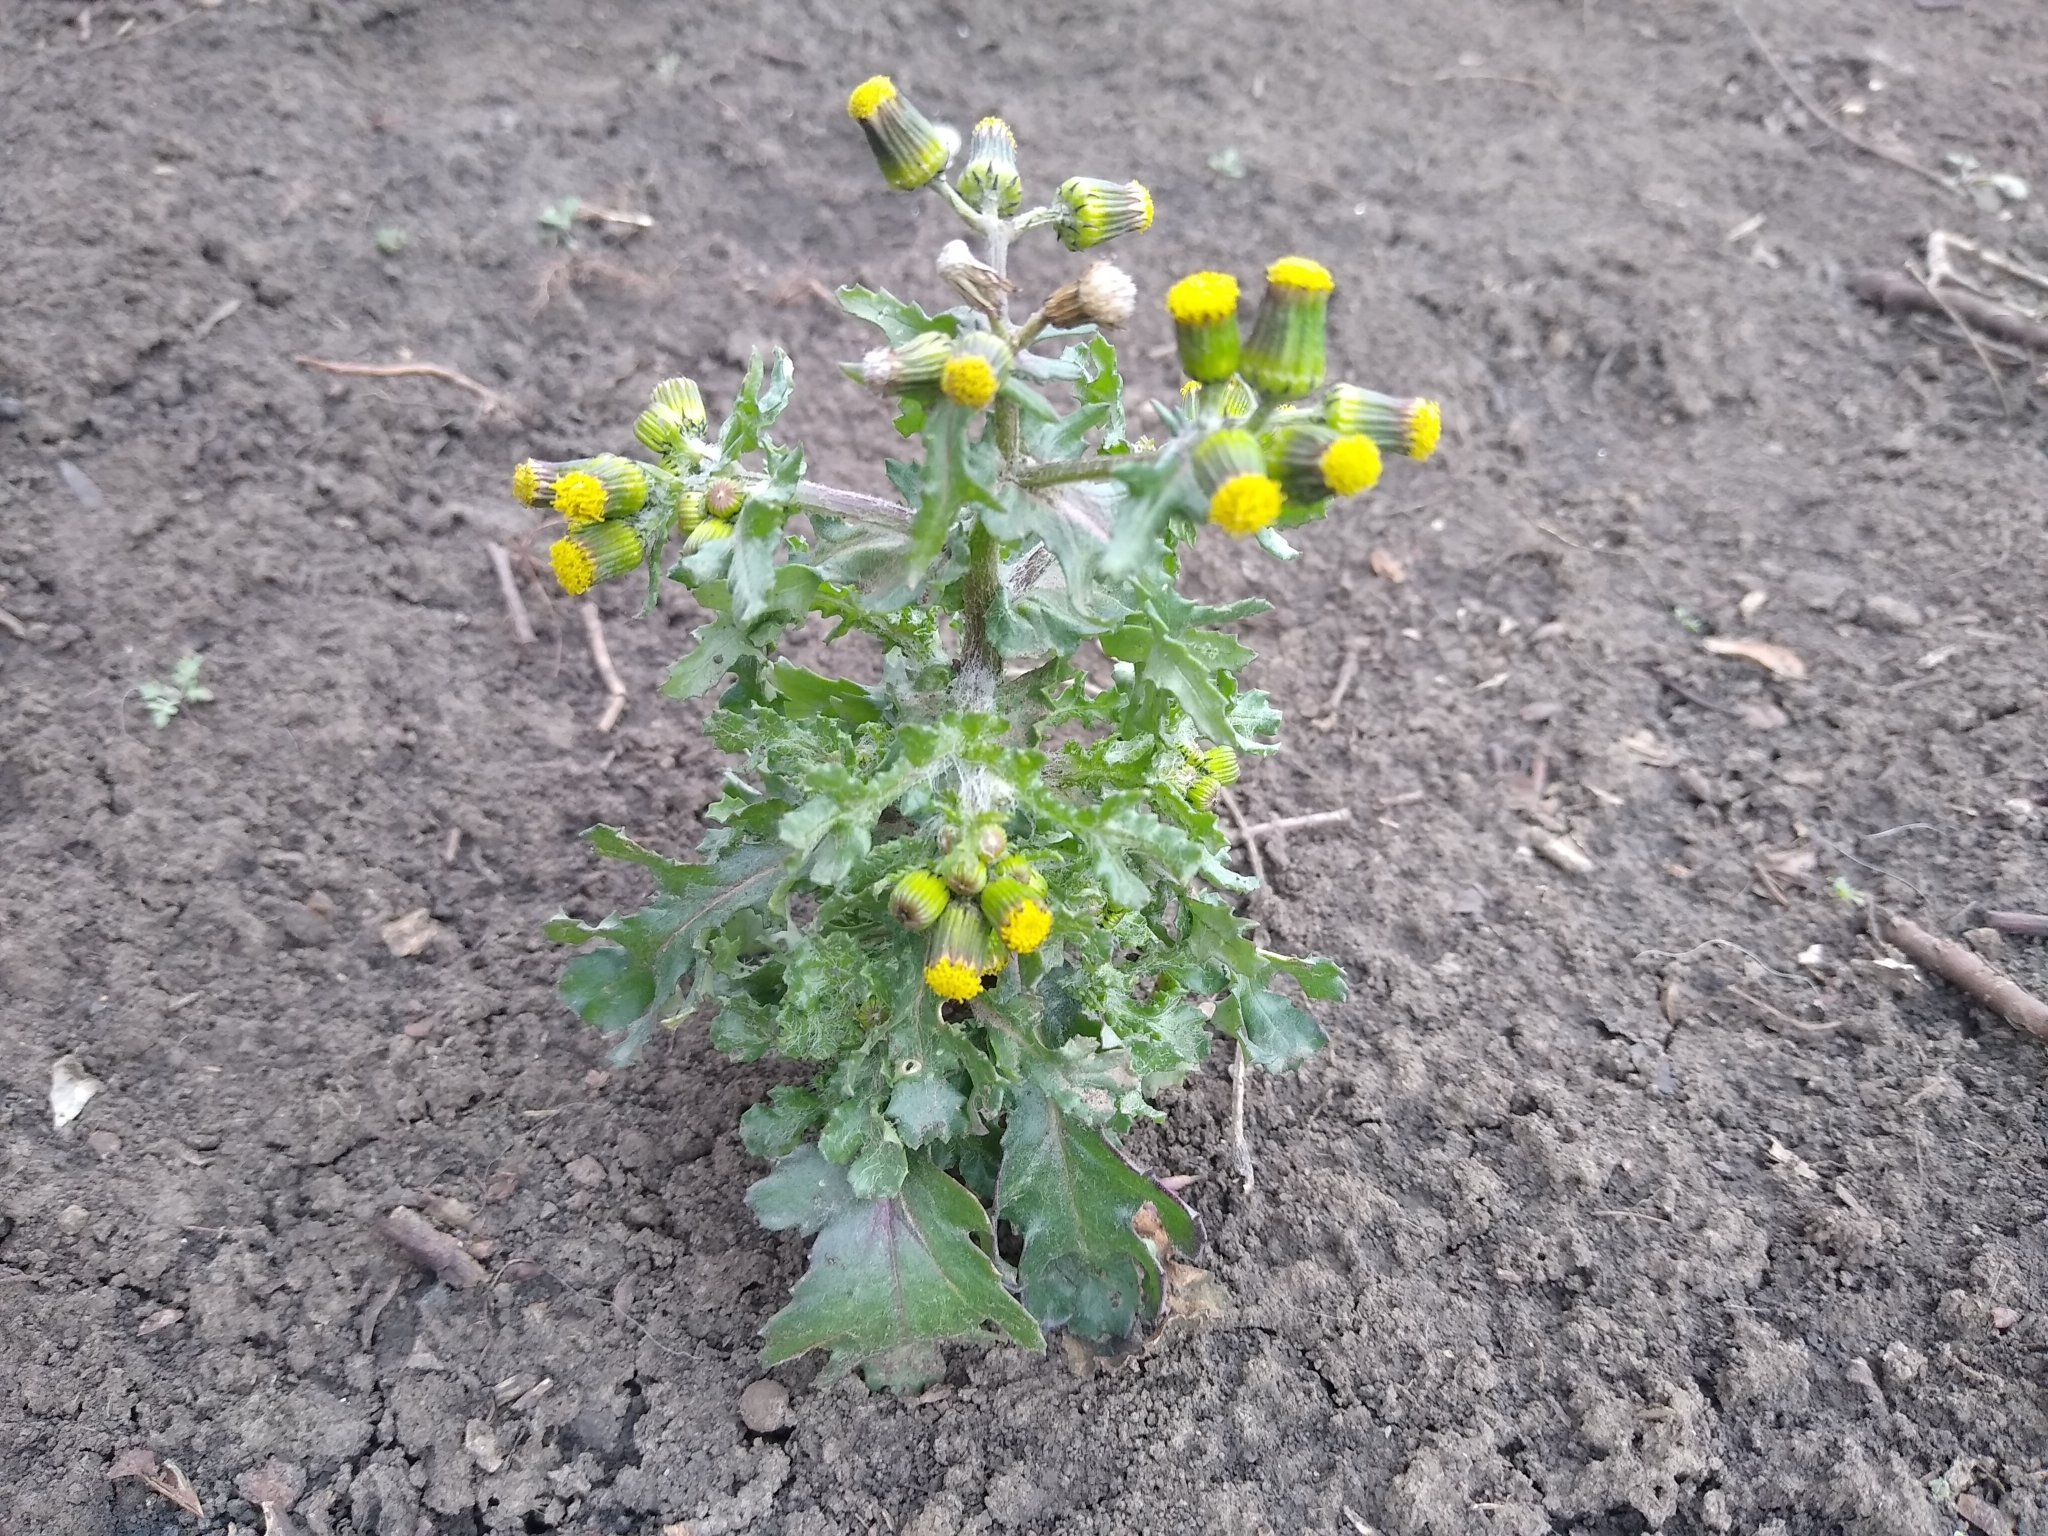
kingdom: Plantae
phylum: Tracheophyta
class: Magnoliopsida
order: Asterales
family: Asteraceae
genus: Senecio
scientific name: Senecio vulgaris
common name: Old-man-in-the-spring
